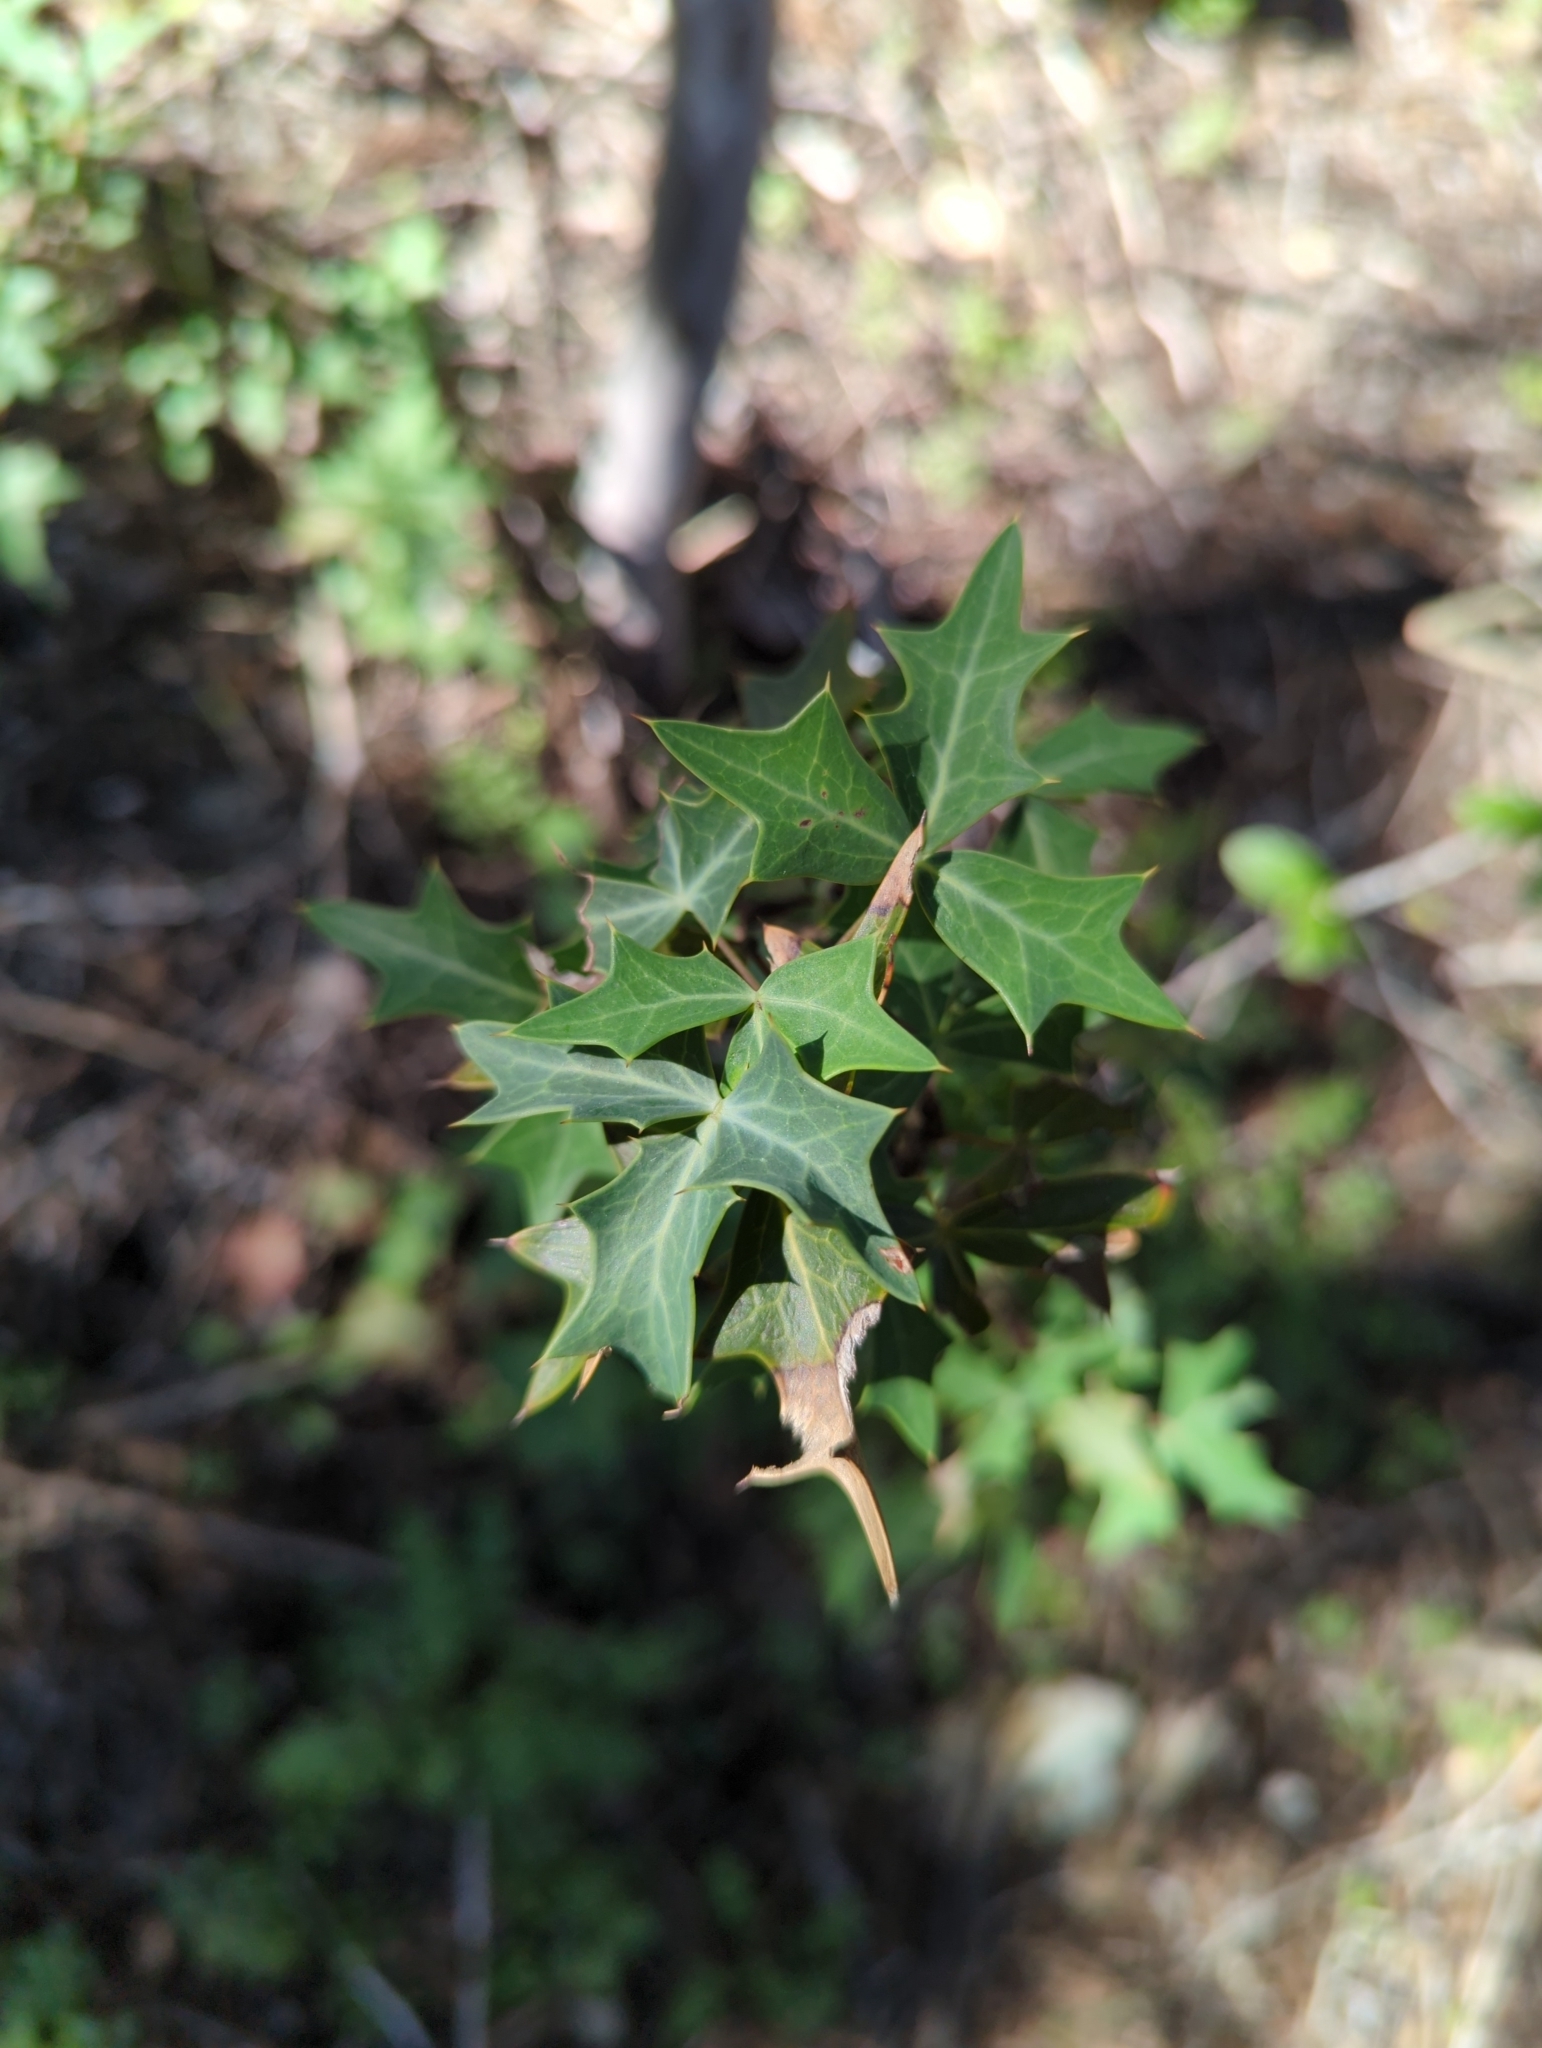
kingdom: Plantae
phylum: Tracheophyta
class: Magnoliopsida
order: Ranunculales
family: Berberidaceae
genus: Alloberberis
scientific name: Alloberberis trifoliolata
